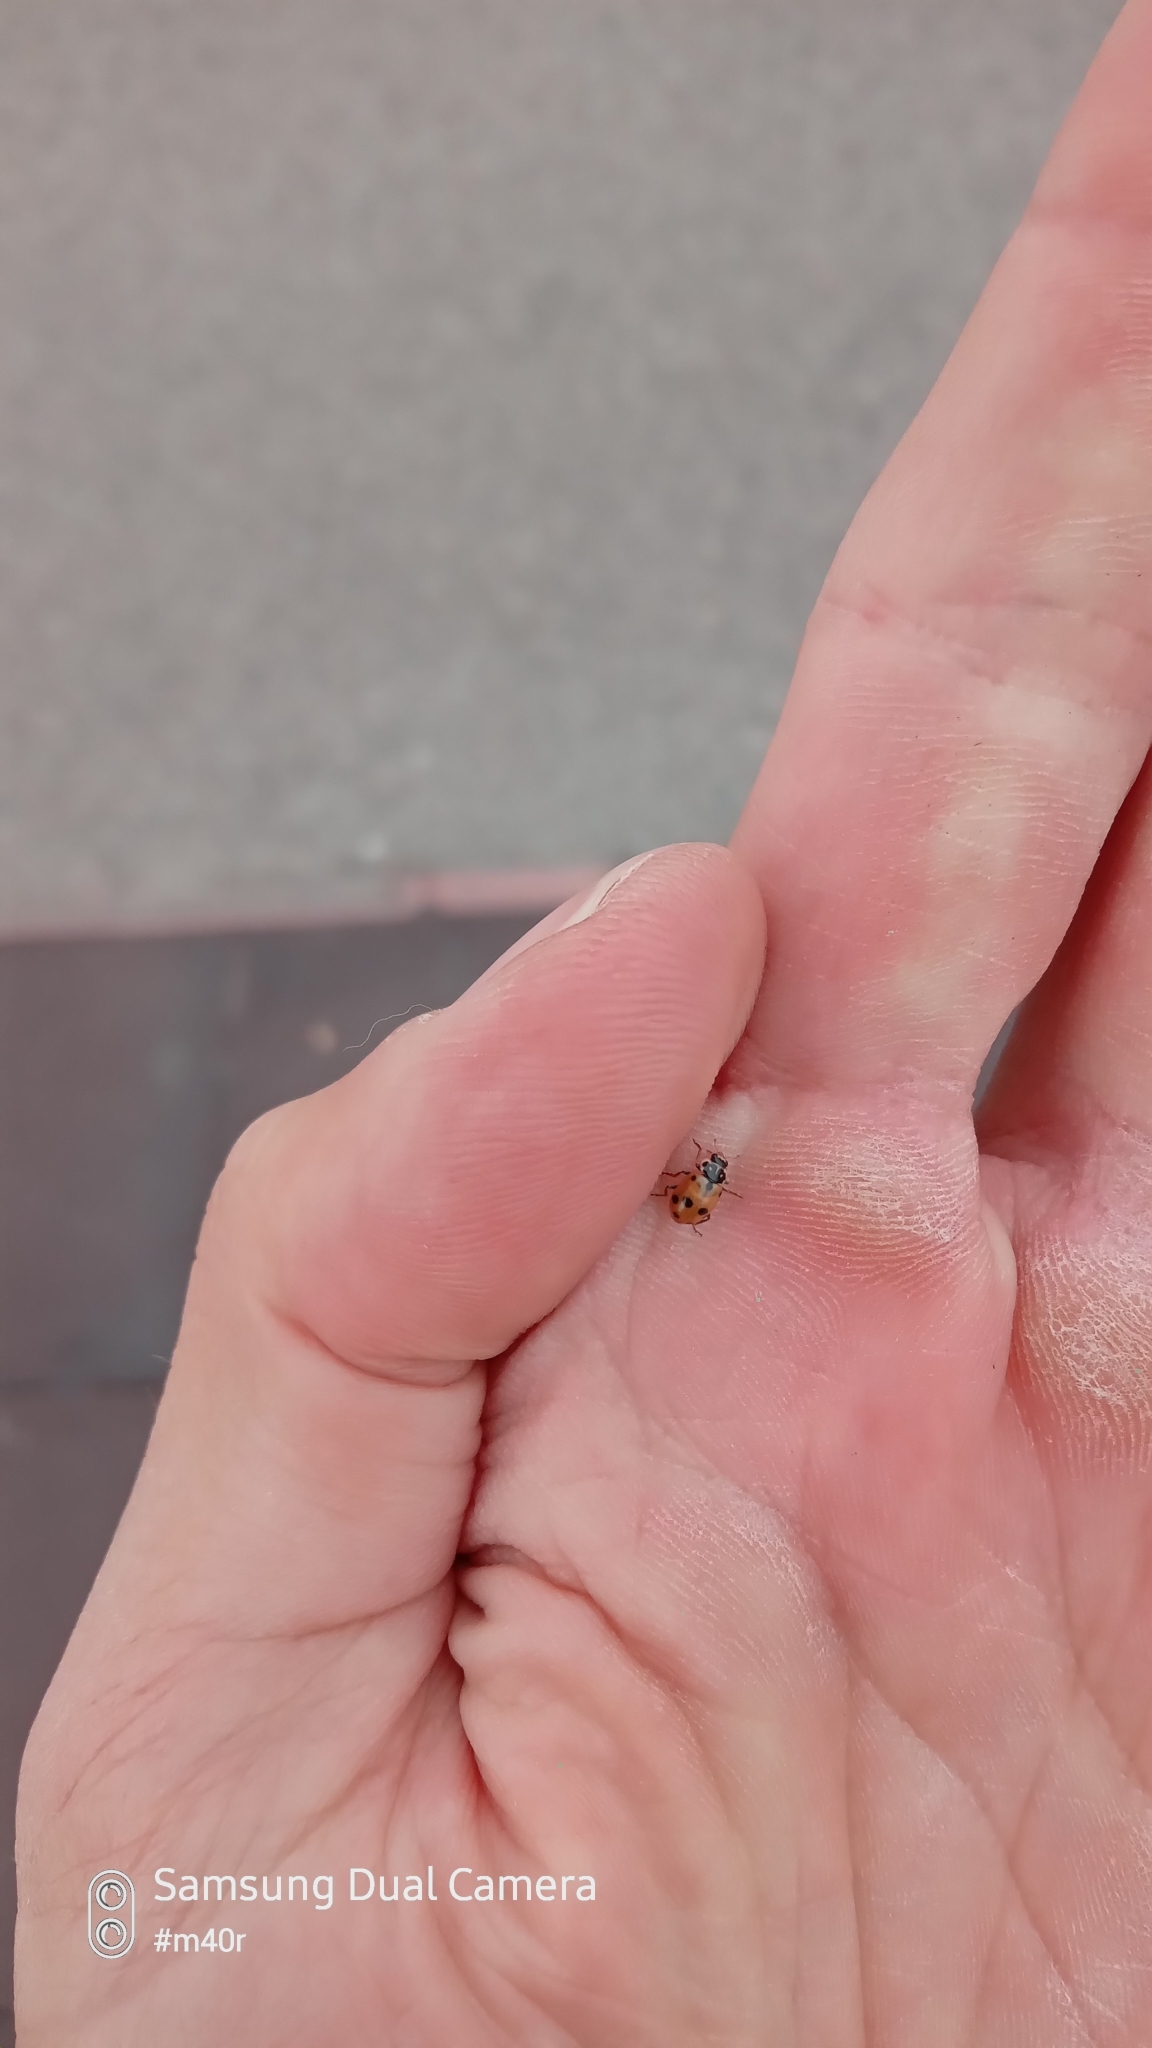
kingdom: Animalia
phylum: Arthropoda
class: Insecta
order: Coleoptera
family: Coccinellidae
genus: Hippodamia
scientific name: Hippodamia variegata
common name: Ladybird beetle
